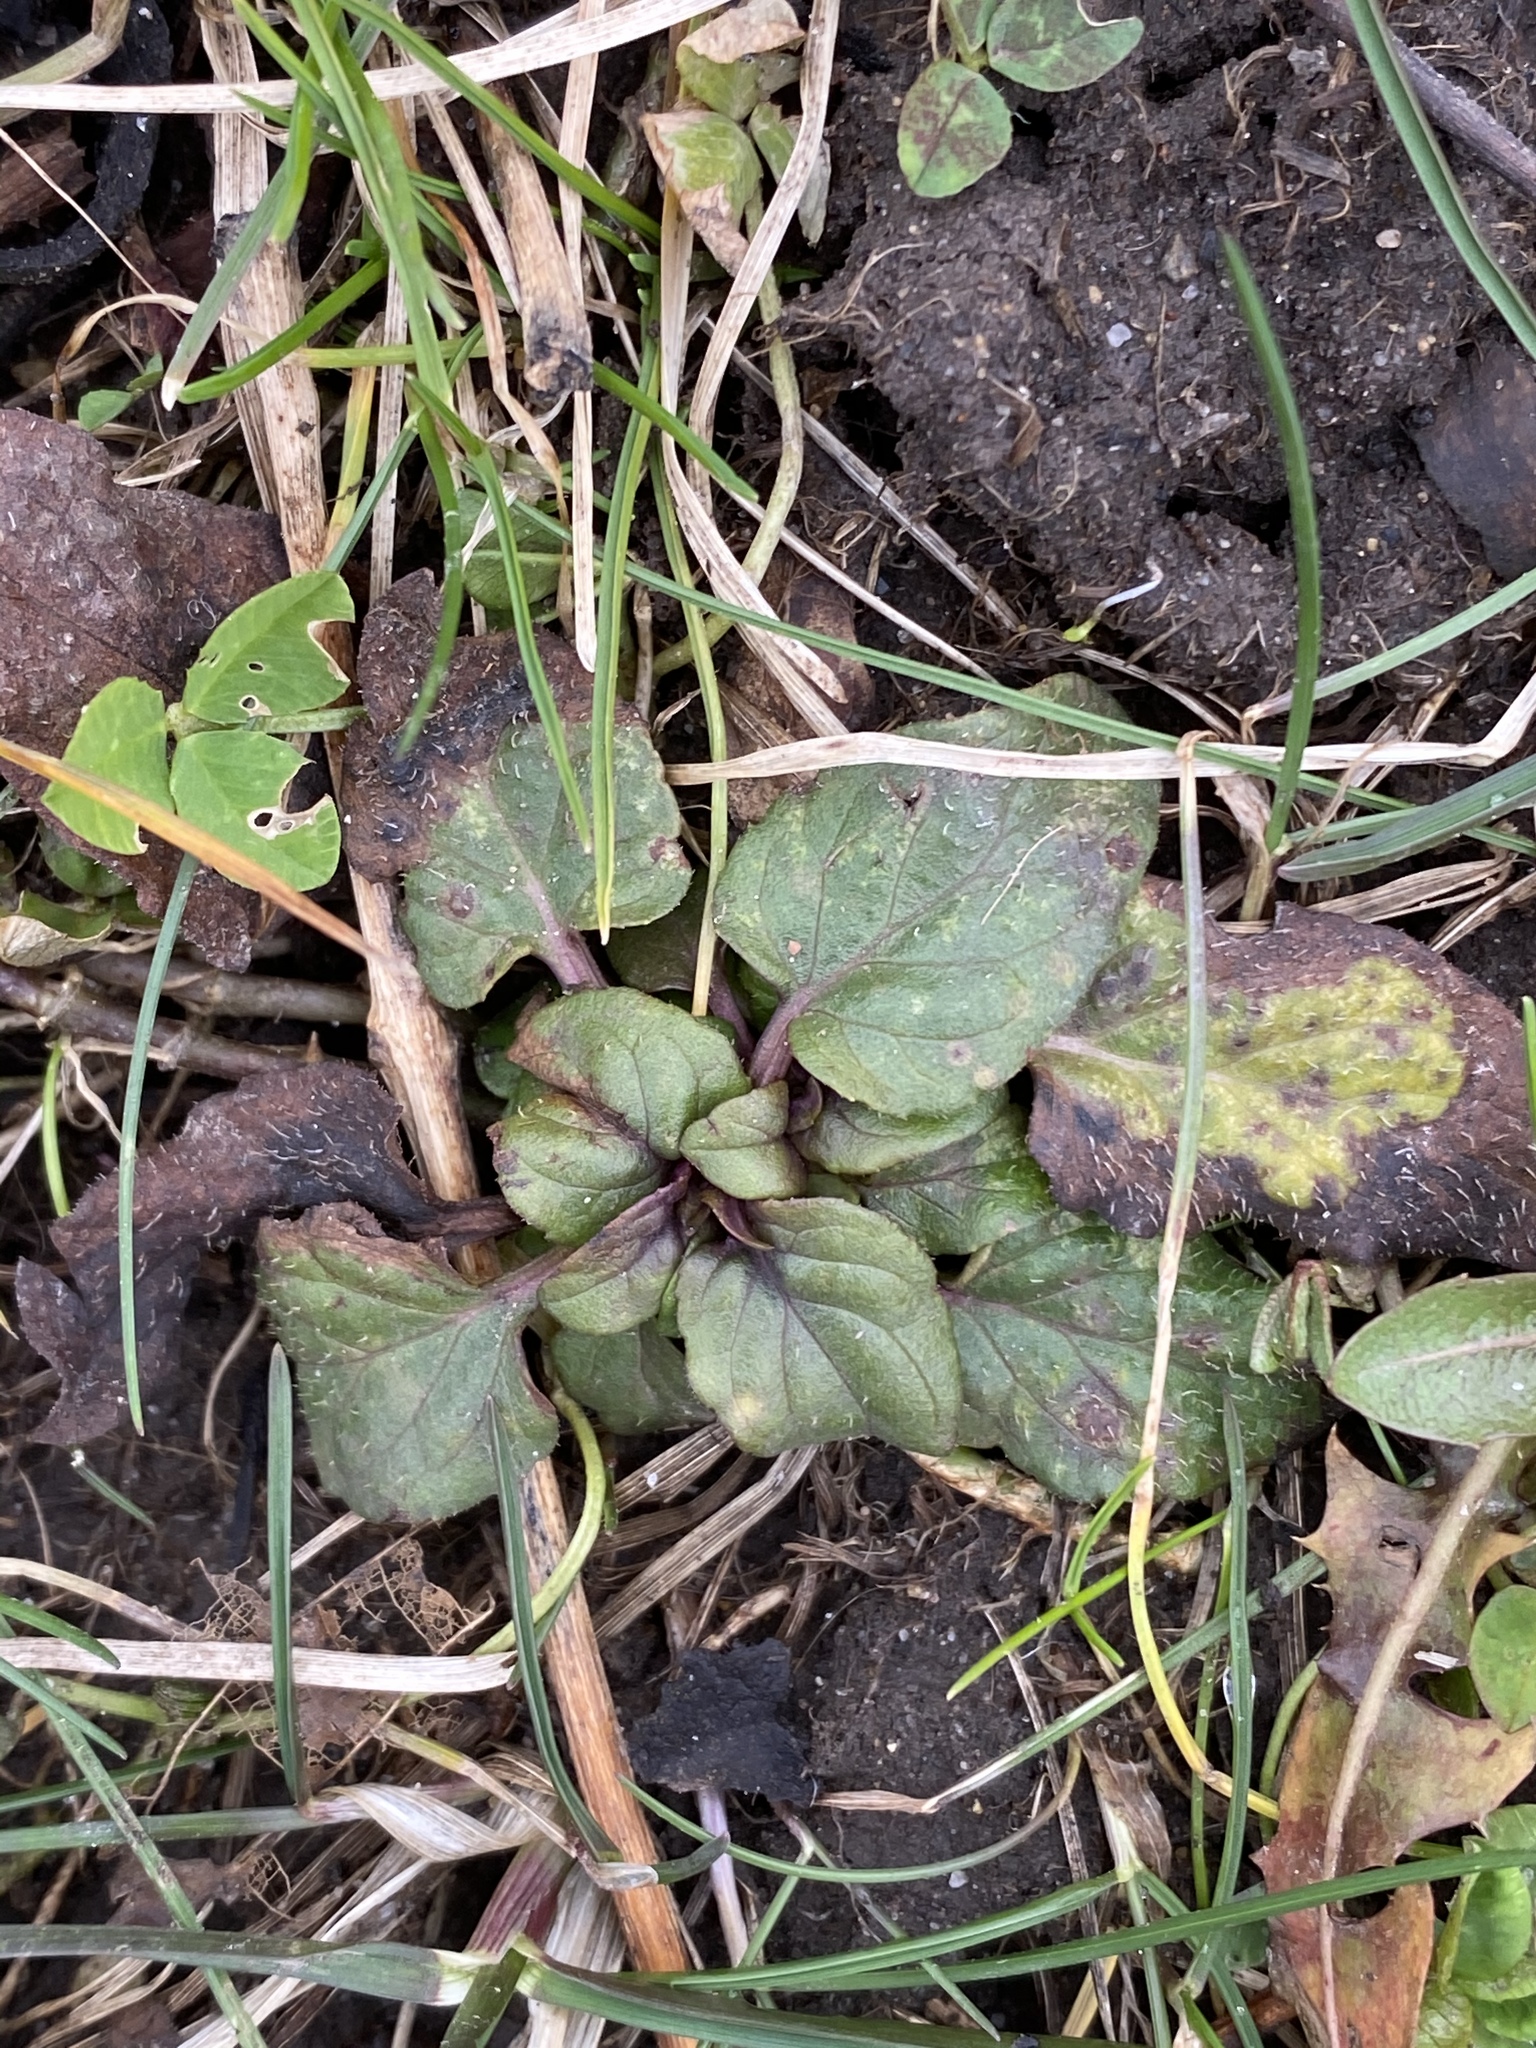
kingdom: Plantae
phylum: Tracheophyta
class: Magnoliopsida
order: Lamiales
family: Lamiaceae
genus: Prunella
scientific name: Prunella vulgaris
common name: Heal-all
